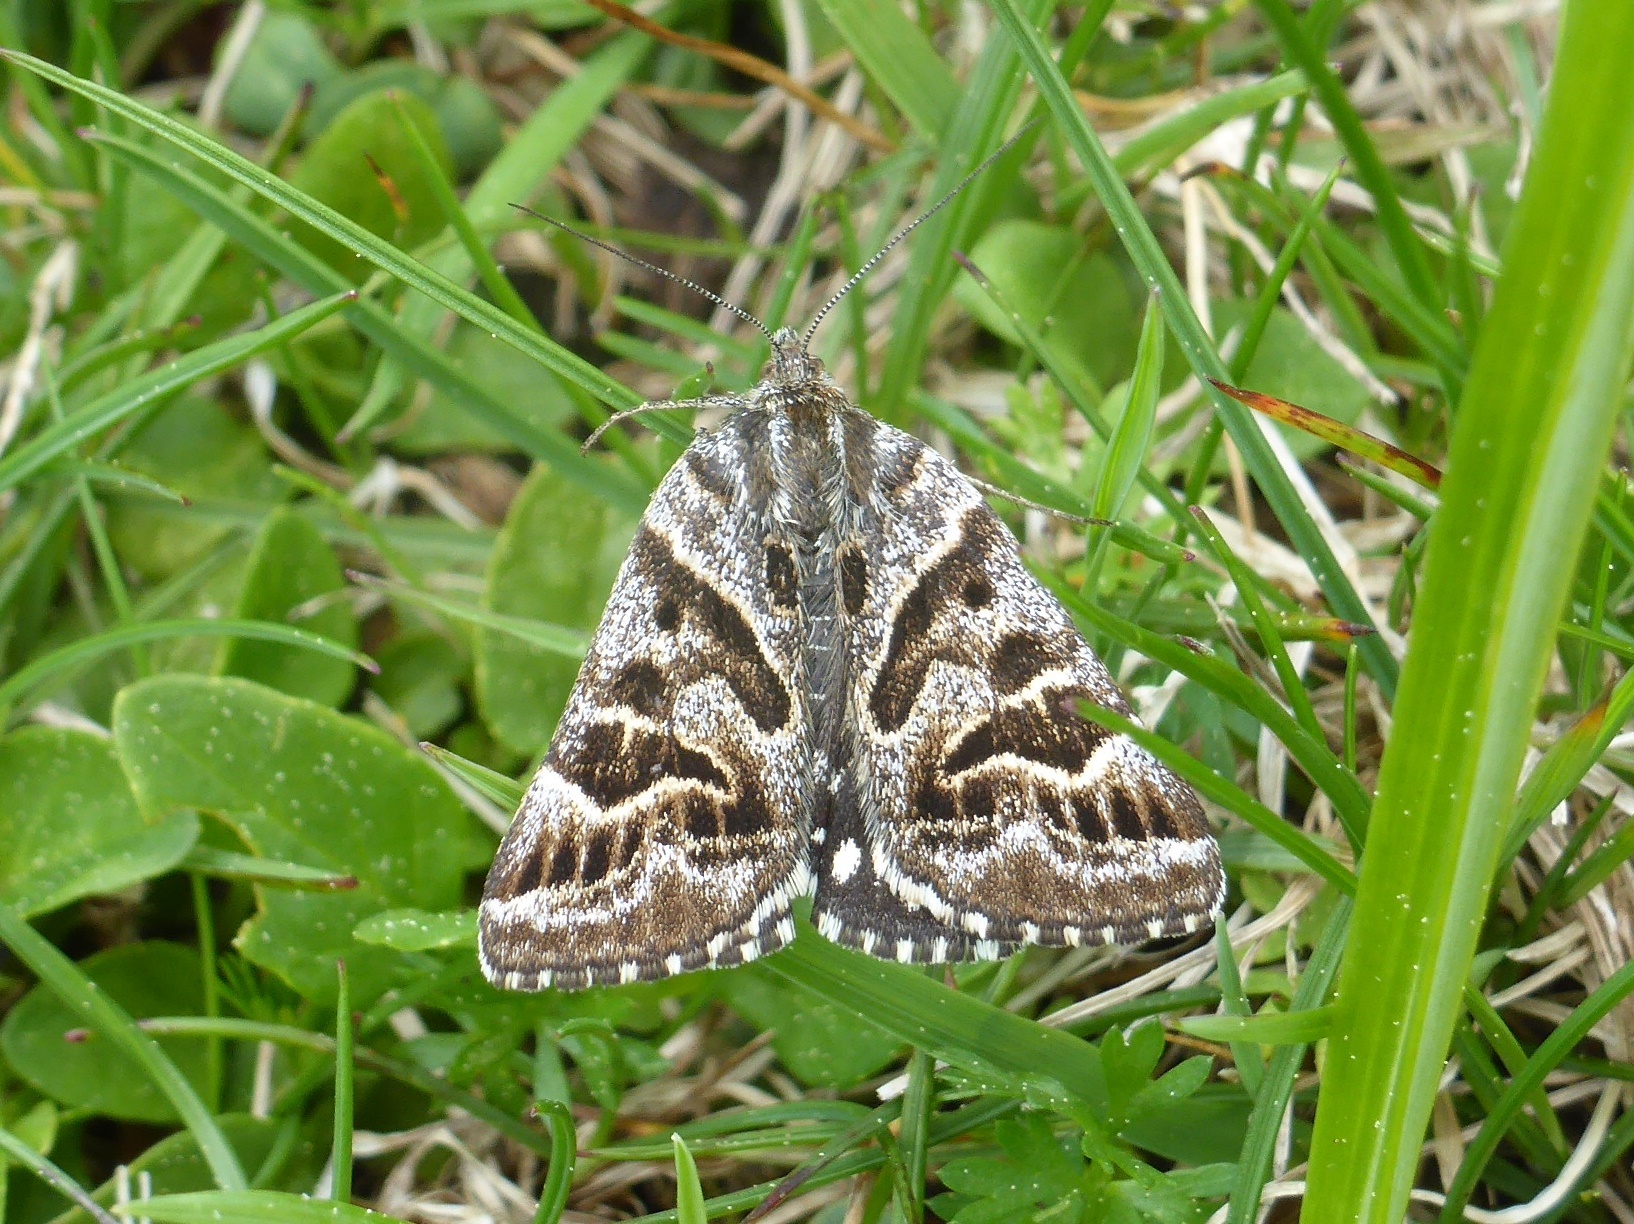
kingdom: Animalia
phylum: Arthropoda
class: Insecta
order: Lepidoptera
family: Erebidae
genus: Callistege
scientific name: Callistege mi
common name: Mother shipton
